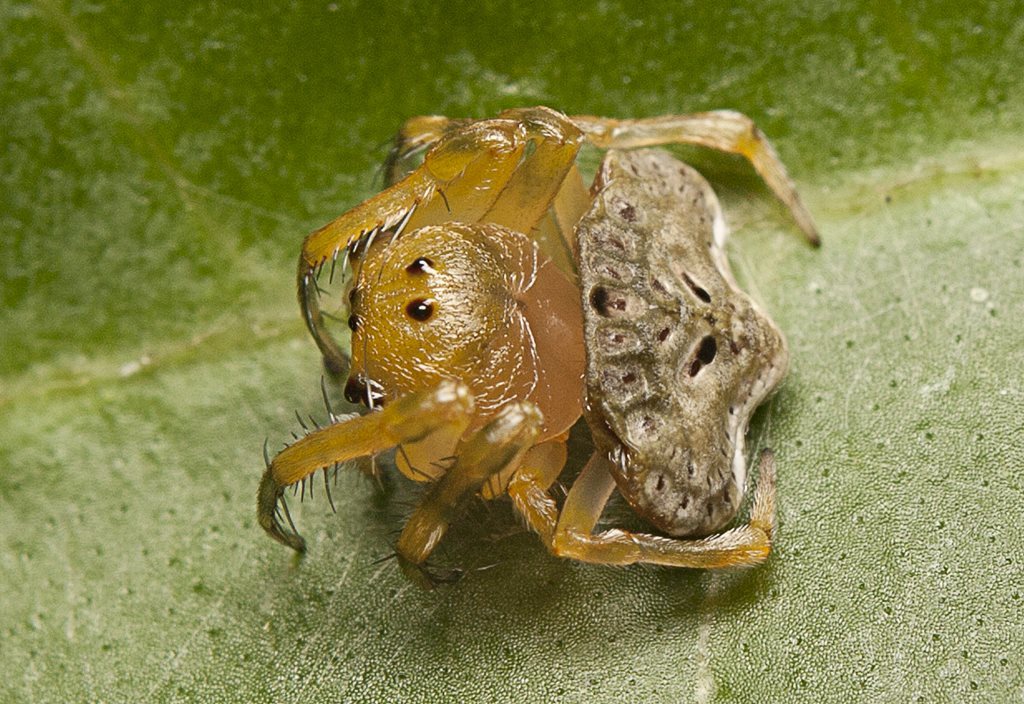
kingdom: Animalia
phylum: Arthropoda
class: Arachnida
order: Araneae
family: Arkyidae
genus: Arkys
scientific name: Arkys speechleyi
